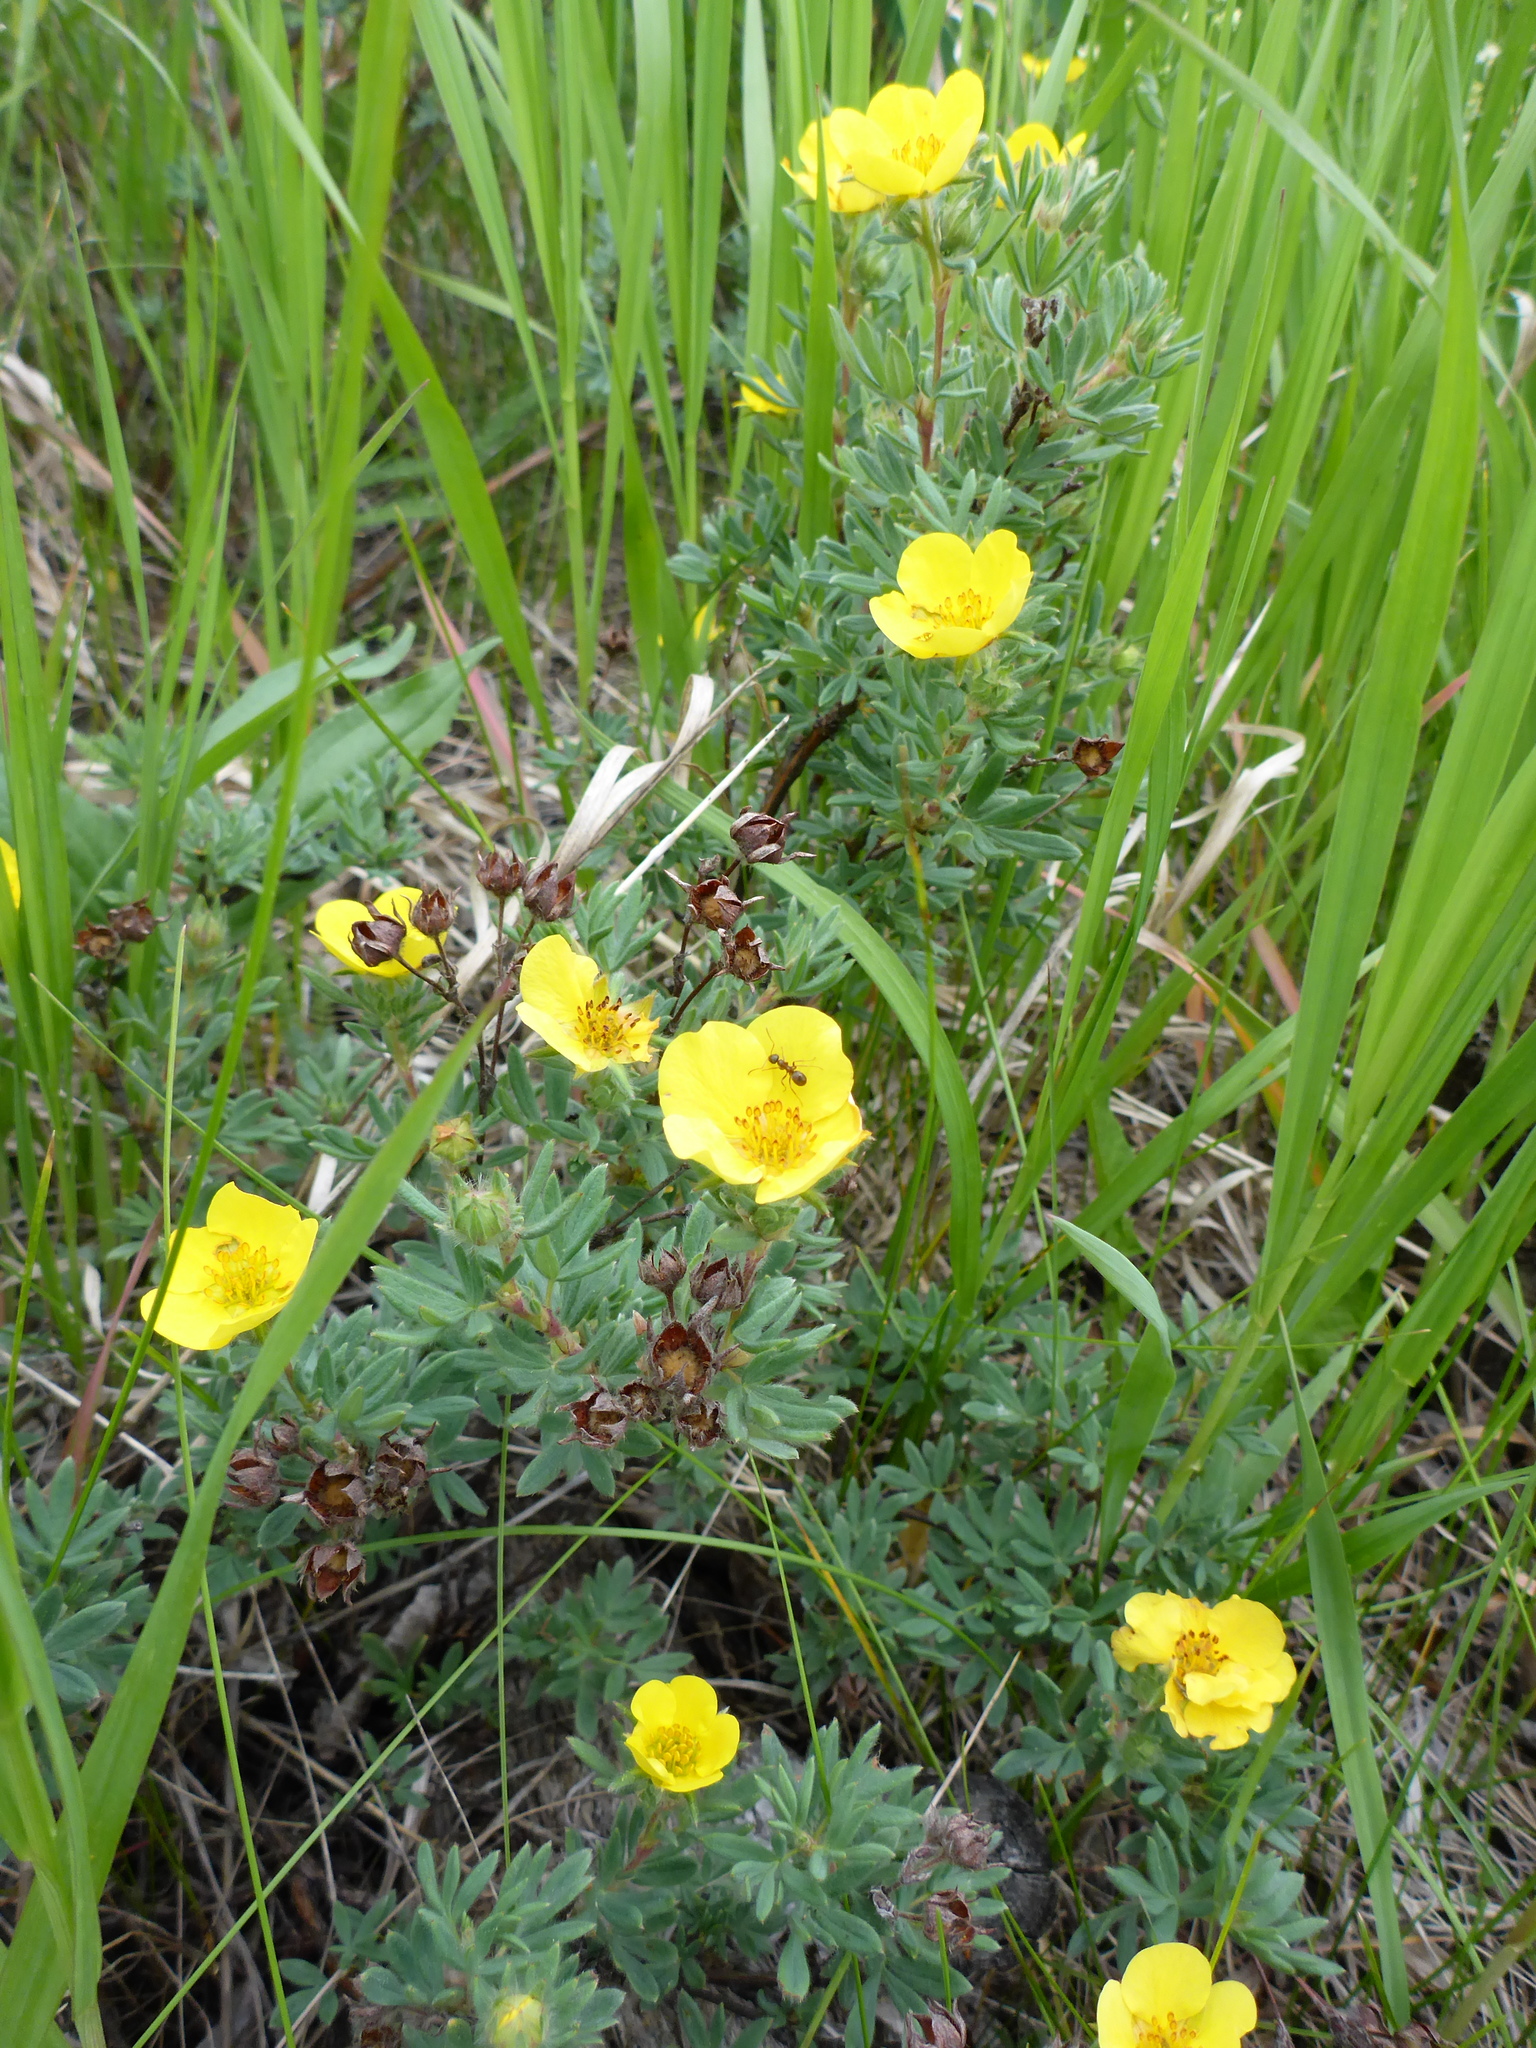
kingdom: Plantae
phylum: Tracheophyta
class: Magnoliopsida
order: Rosales
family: Rosaceae
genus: Dasiphora
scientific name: Dasiphora fruticosa
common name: Shrubby cinquefoil
